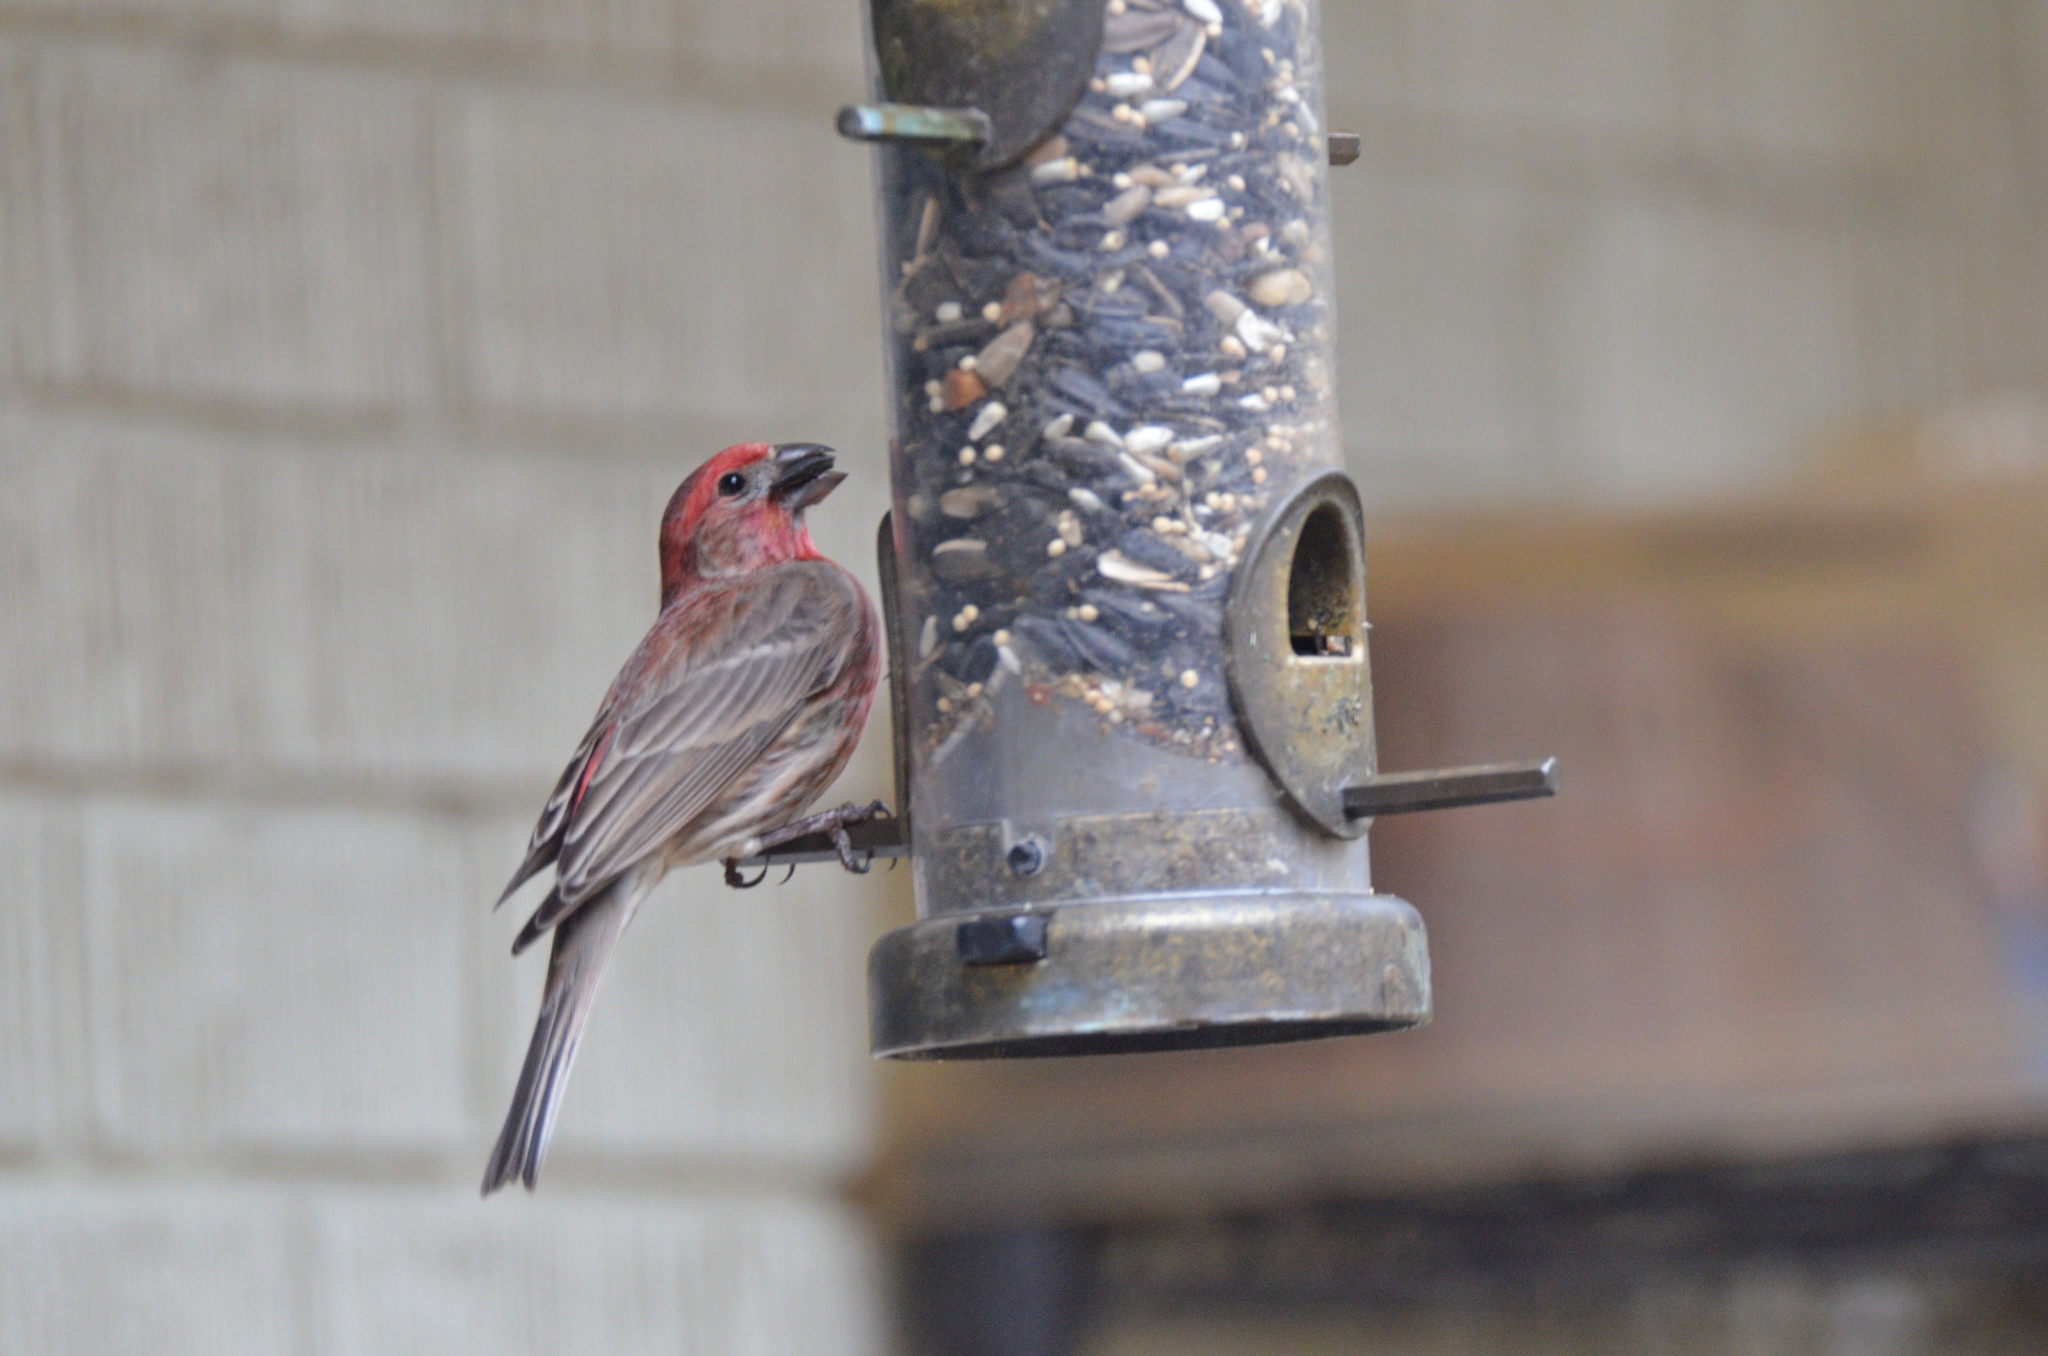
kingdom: Animalia
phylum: Chordata
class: Aves
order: Passeriformes
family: Fringillidae
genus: Haemorhous
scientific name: Haemorhous mexicanus
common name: House finch
